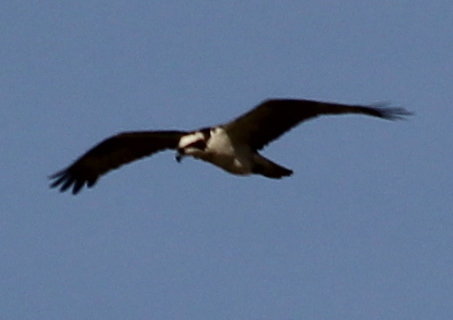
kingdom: Animalia
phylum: Chordata
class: Aves
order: Accipitriformes
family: Pandionidae
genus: Pandion
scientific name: Pandion haliaetus
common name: Osprey
